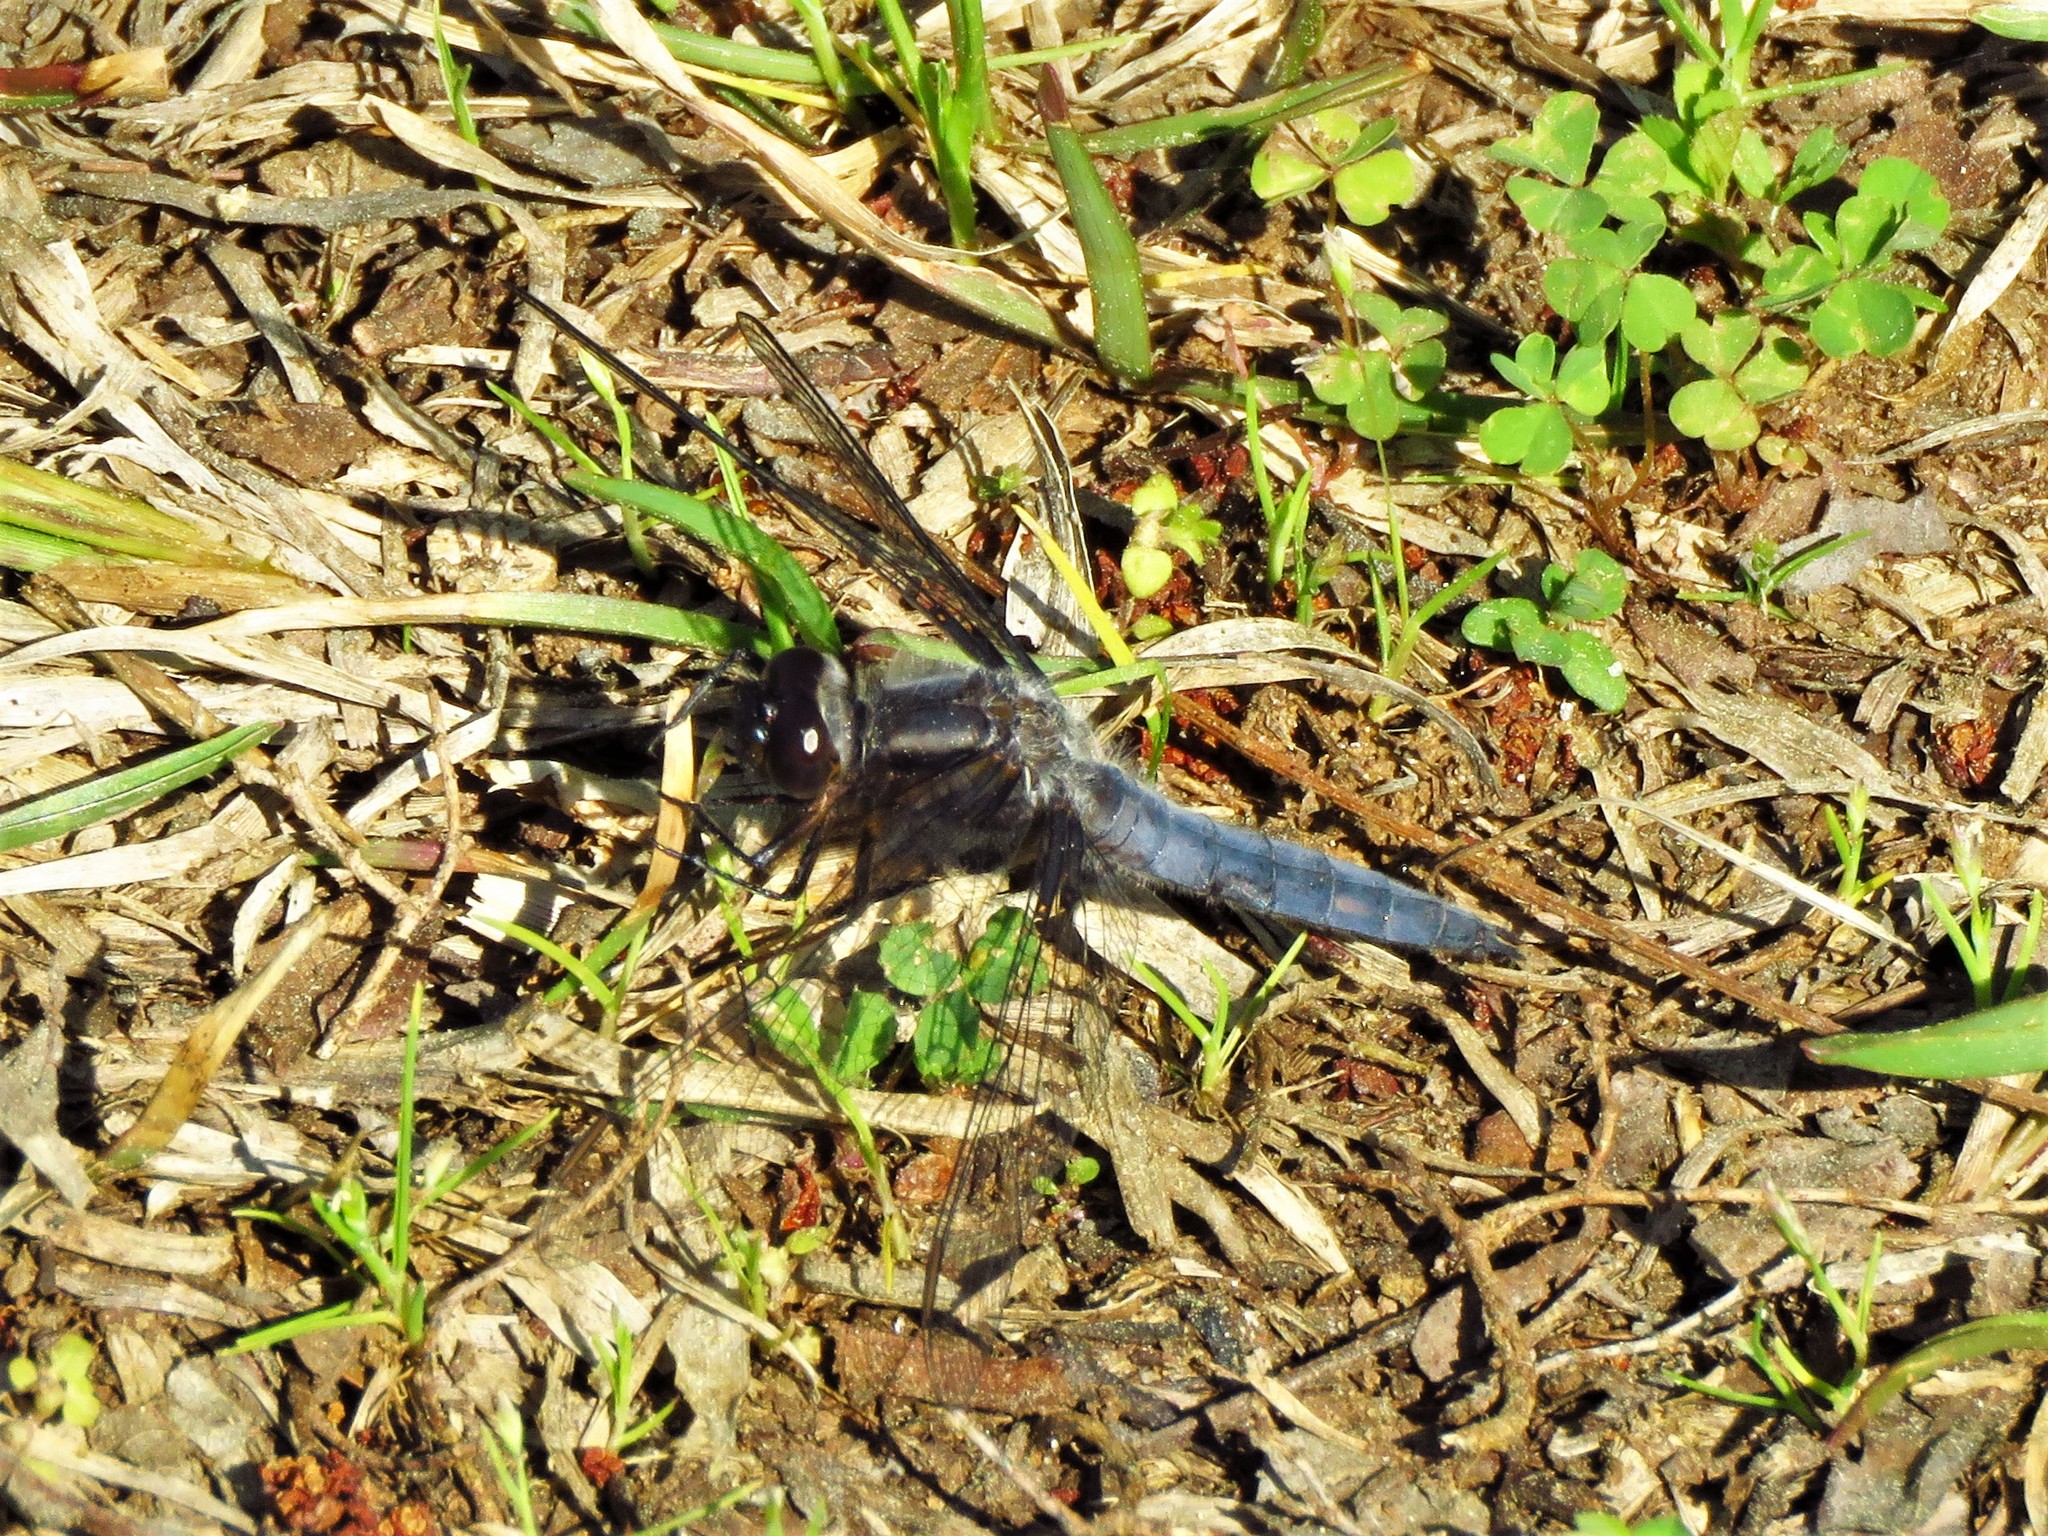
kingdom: Animalia
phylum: Arthropoda
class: Insecta
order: Odonata
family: Libellulidae
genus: Ladona
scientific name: Ladona deplanata
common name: Blue corporal
